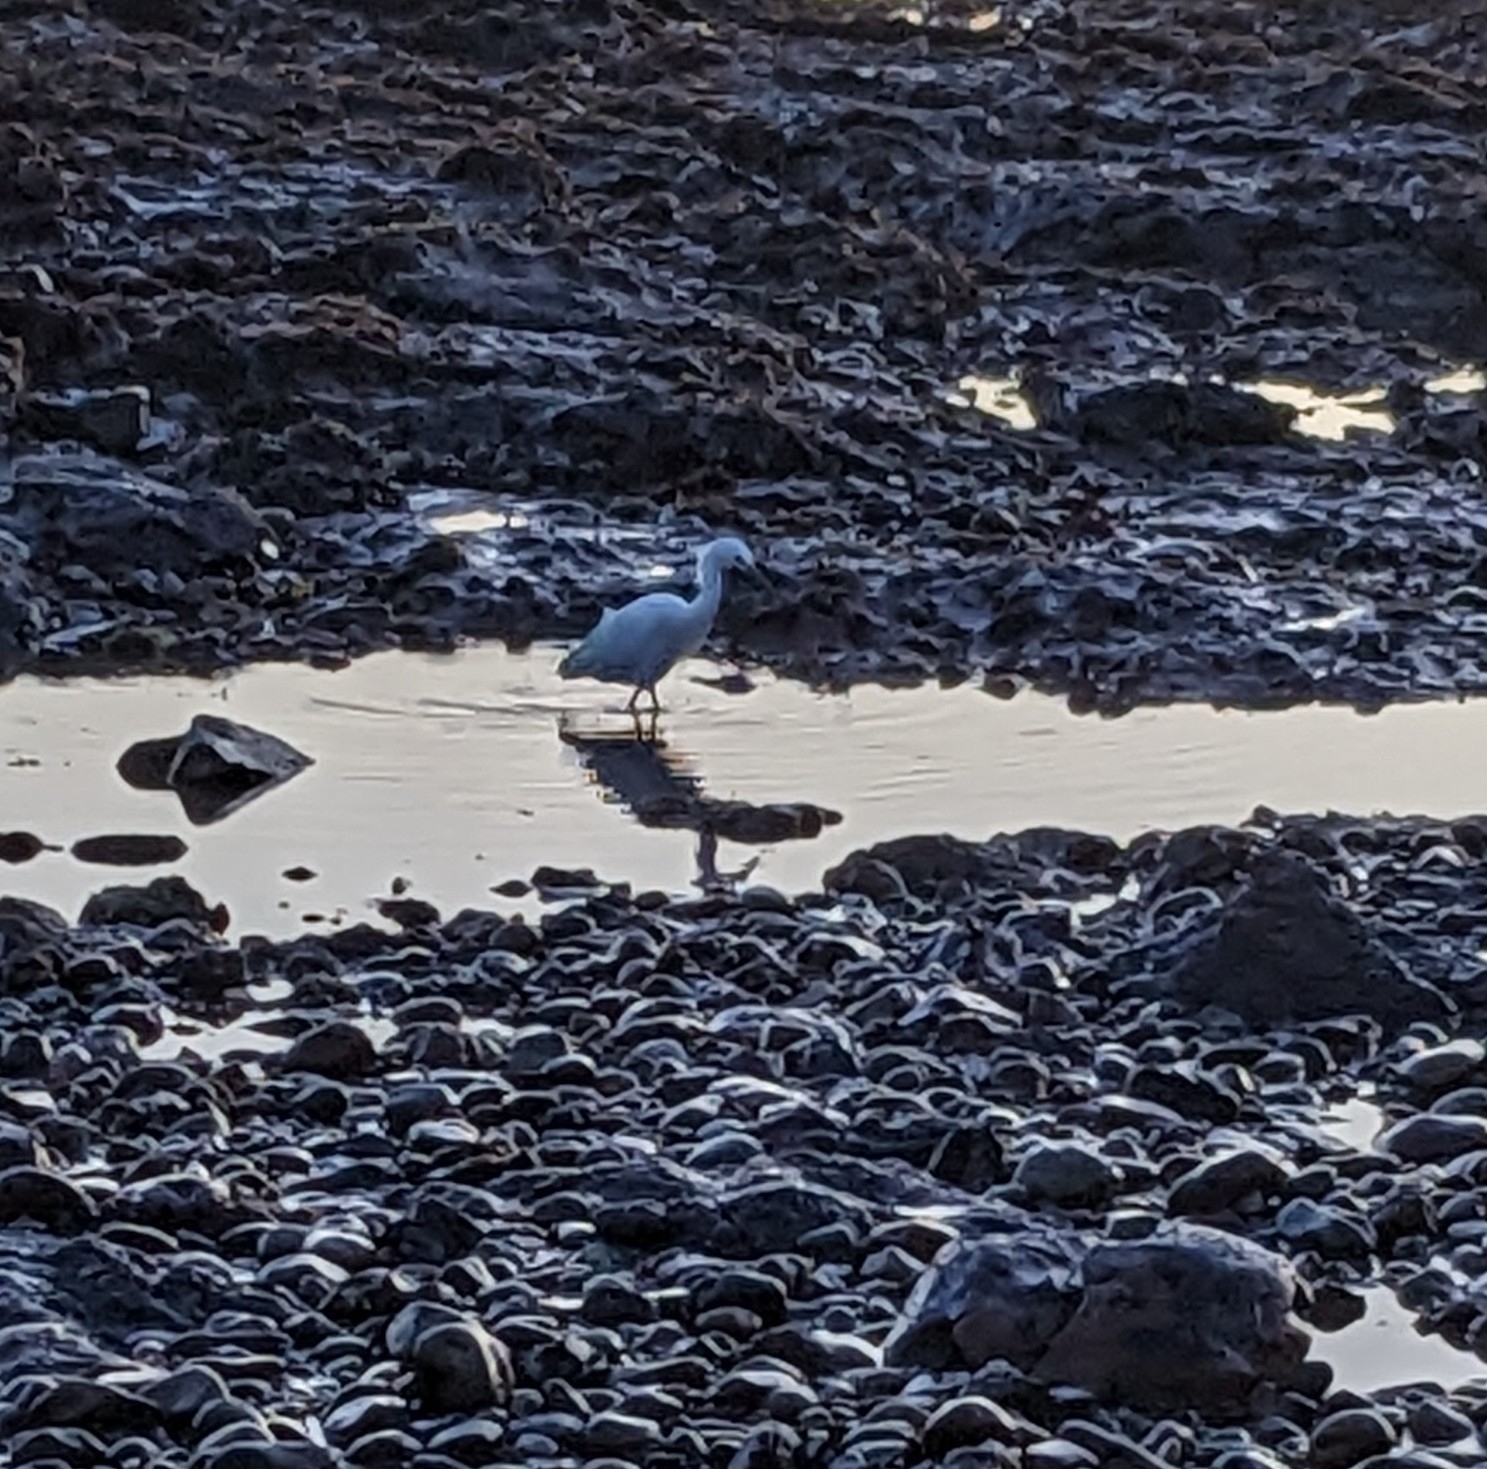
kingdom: Animalia
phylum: Chordata
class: Aves
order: Pelecaniformes
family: Ardeidae
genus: Egretta
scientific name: Egretta thula
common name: Snowy egret
